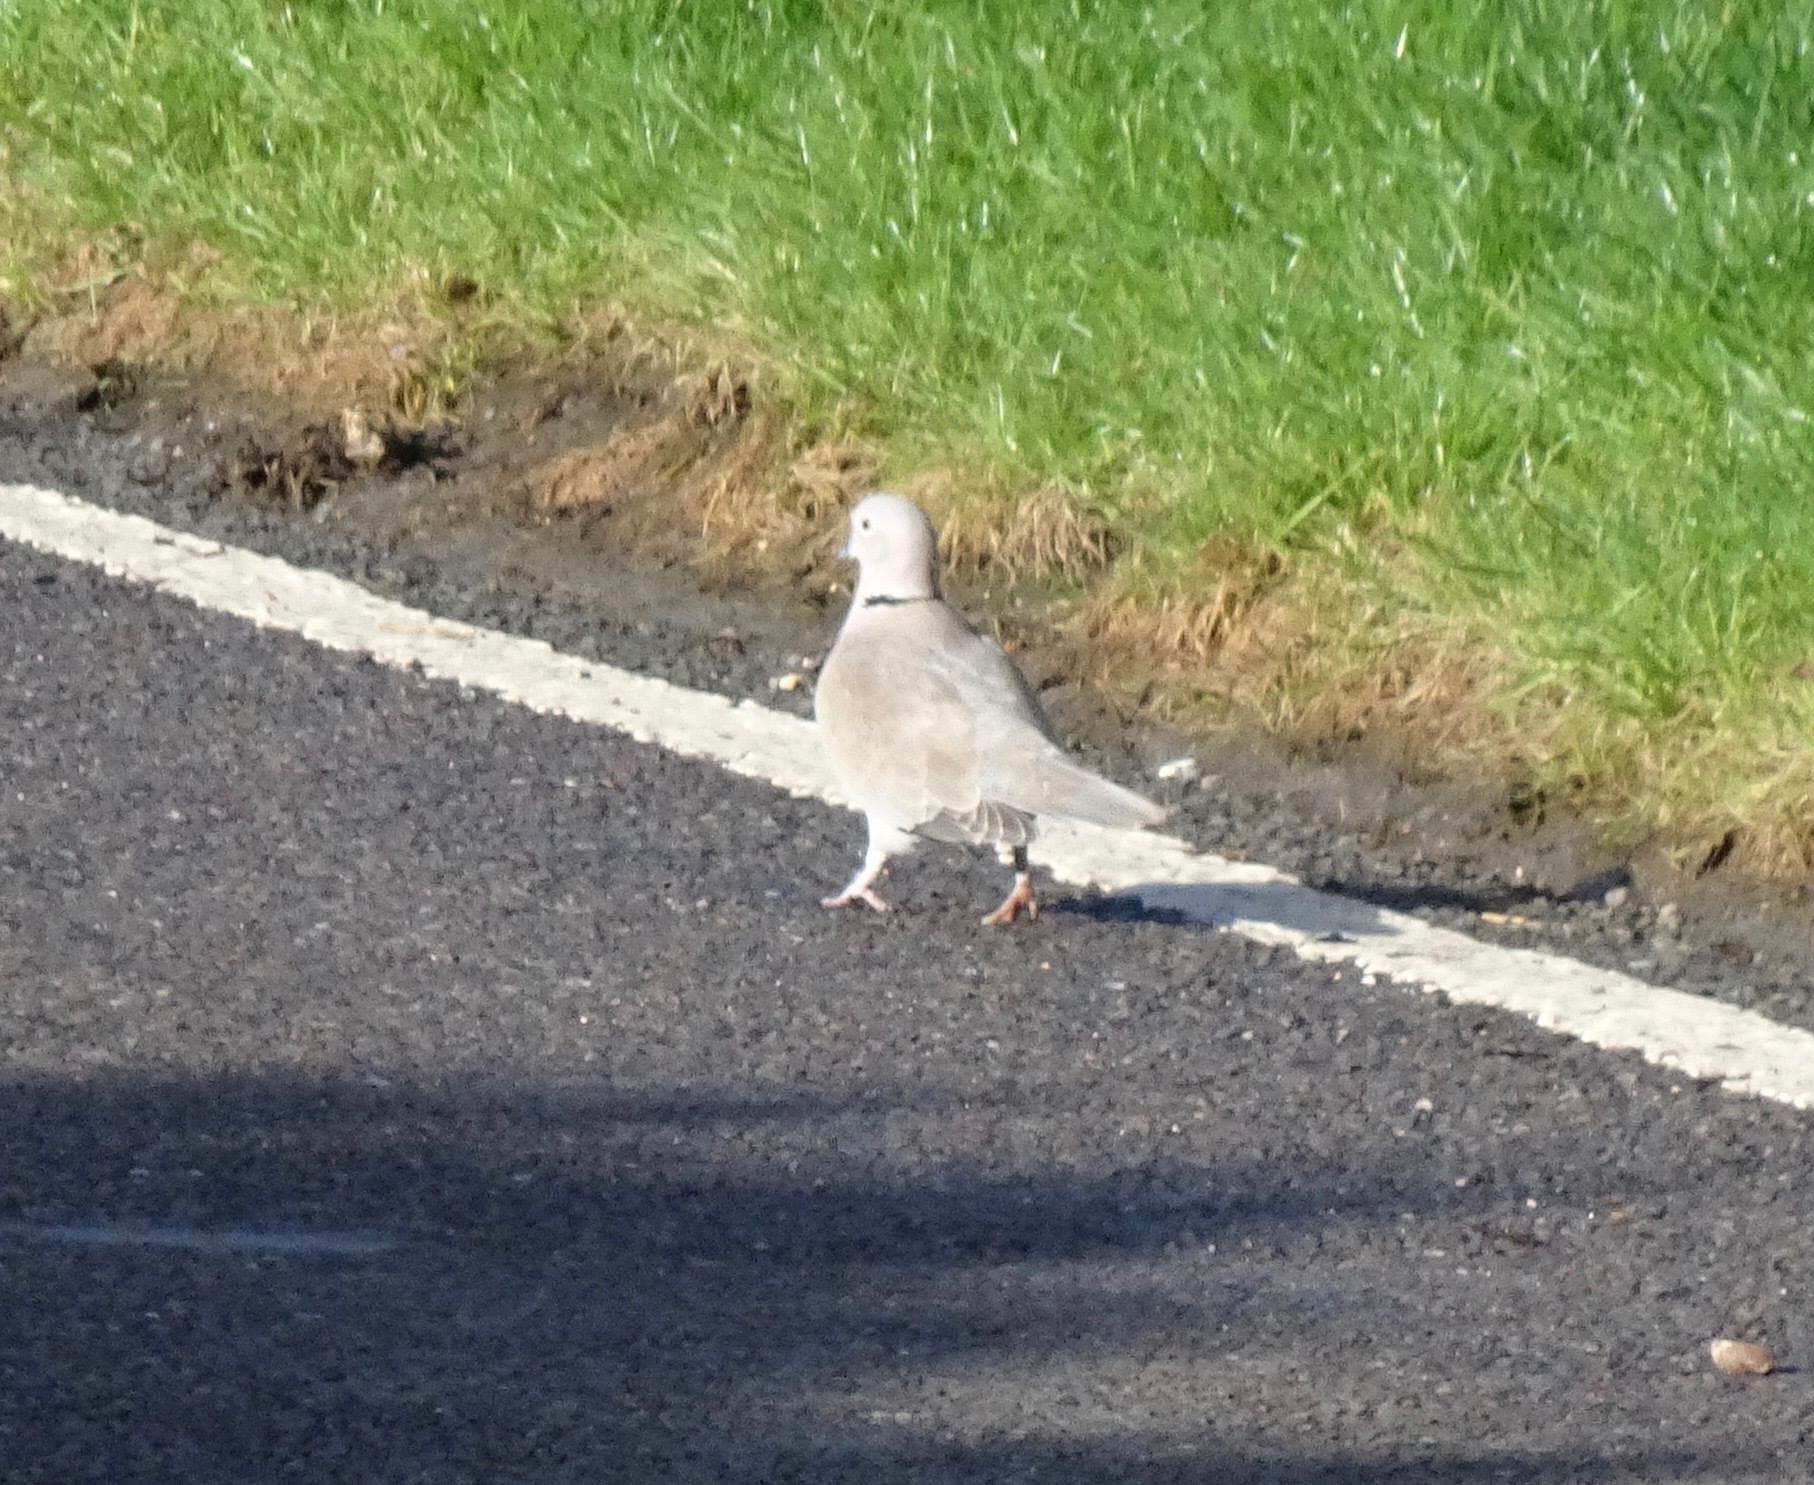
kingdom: Animalia
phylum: Chordata
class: Aves
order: Columbiformes
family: Columbidae
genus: Streptopelia
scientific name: Streptopelia decaocto
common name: Eurasian collared dove
